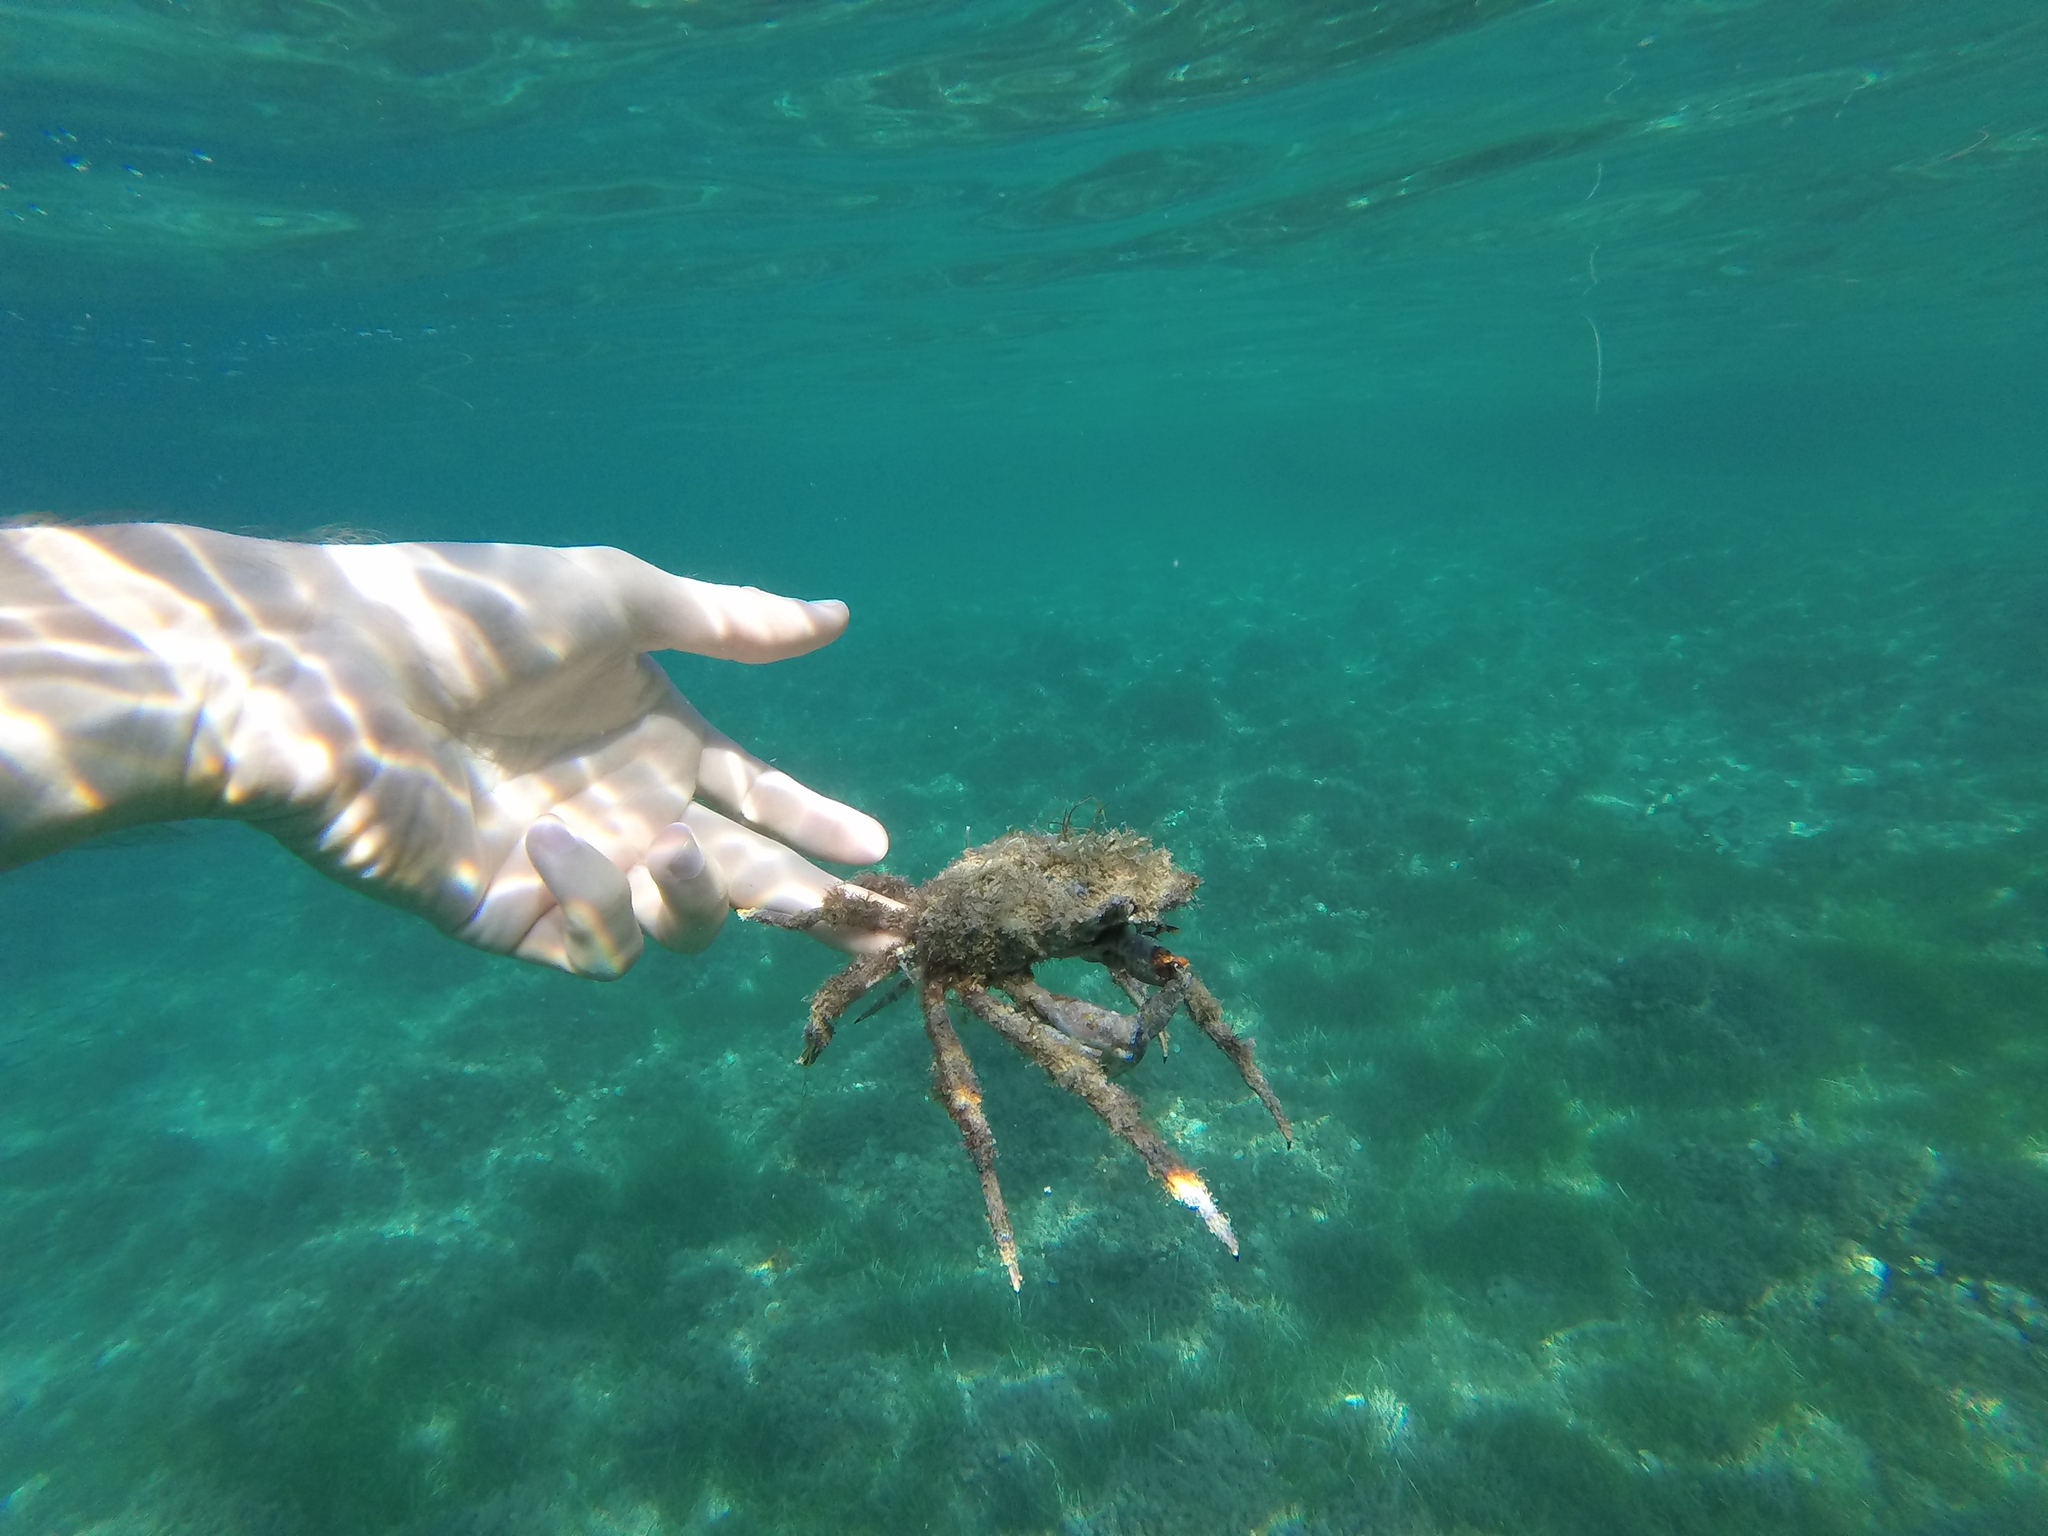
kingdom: Animalia
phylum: Arthropoda
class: Malacostraca
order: Decapoda
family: Majidae
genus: Maja
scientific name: Maja crispata
